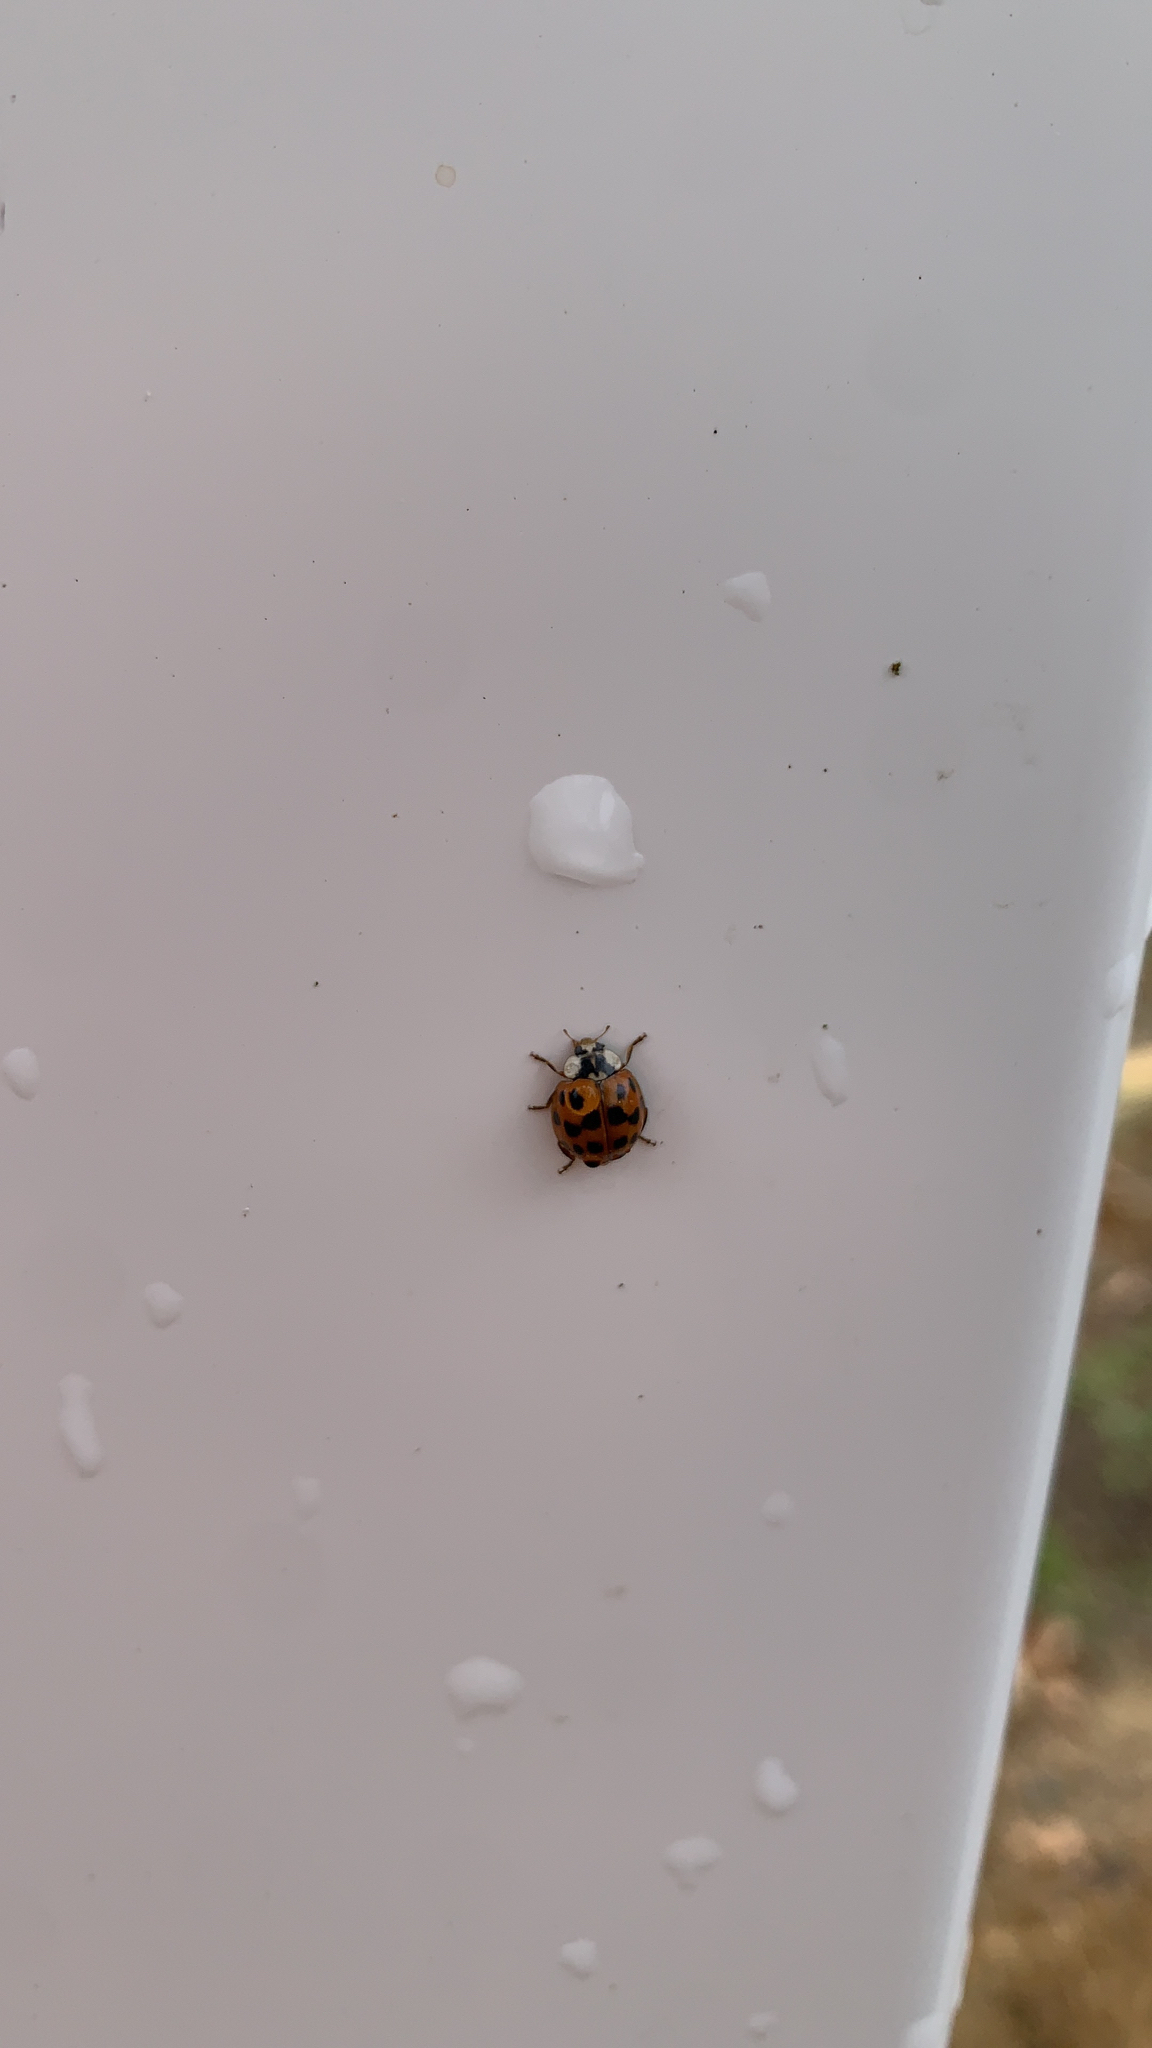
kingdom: Animalia
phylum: Arthropoda
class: Insecta
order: Coleoptera
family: Coccinellidae
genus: Harmonia
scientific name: Harmonia axyridis
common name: Harlequin ladybird
